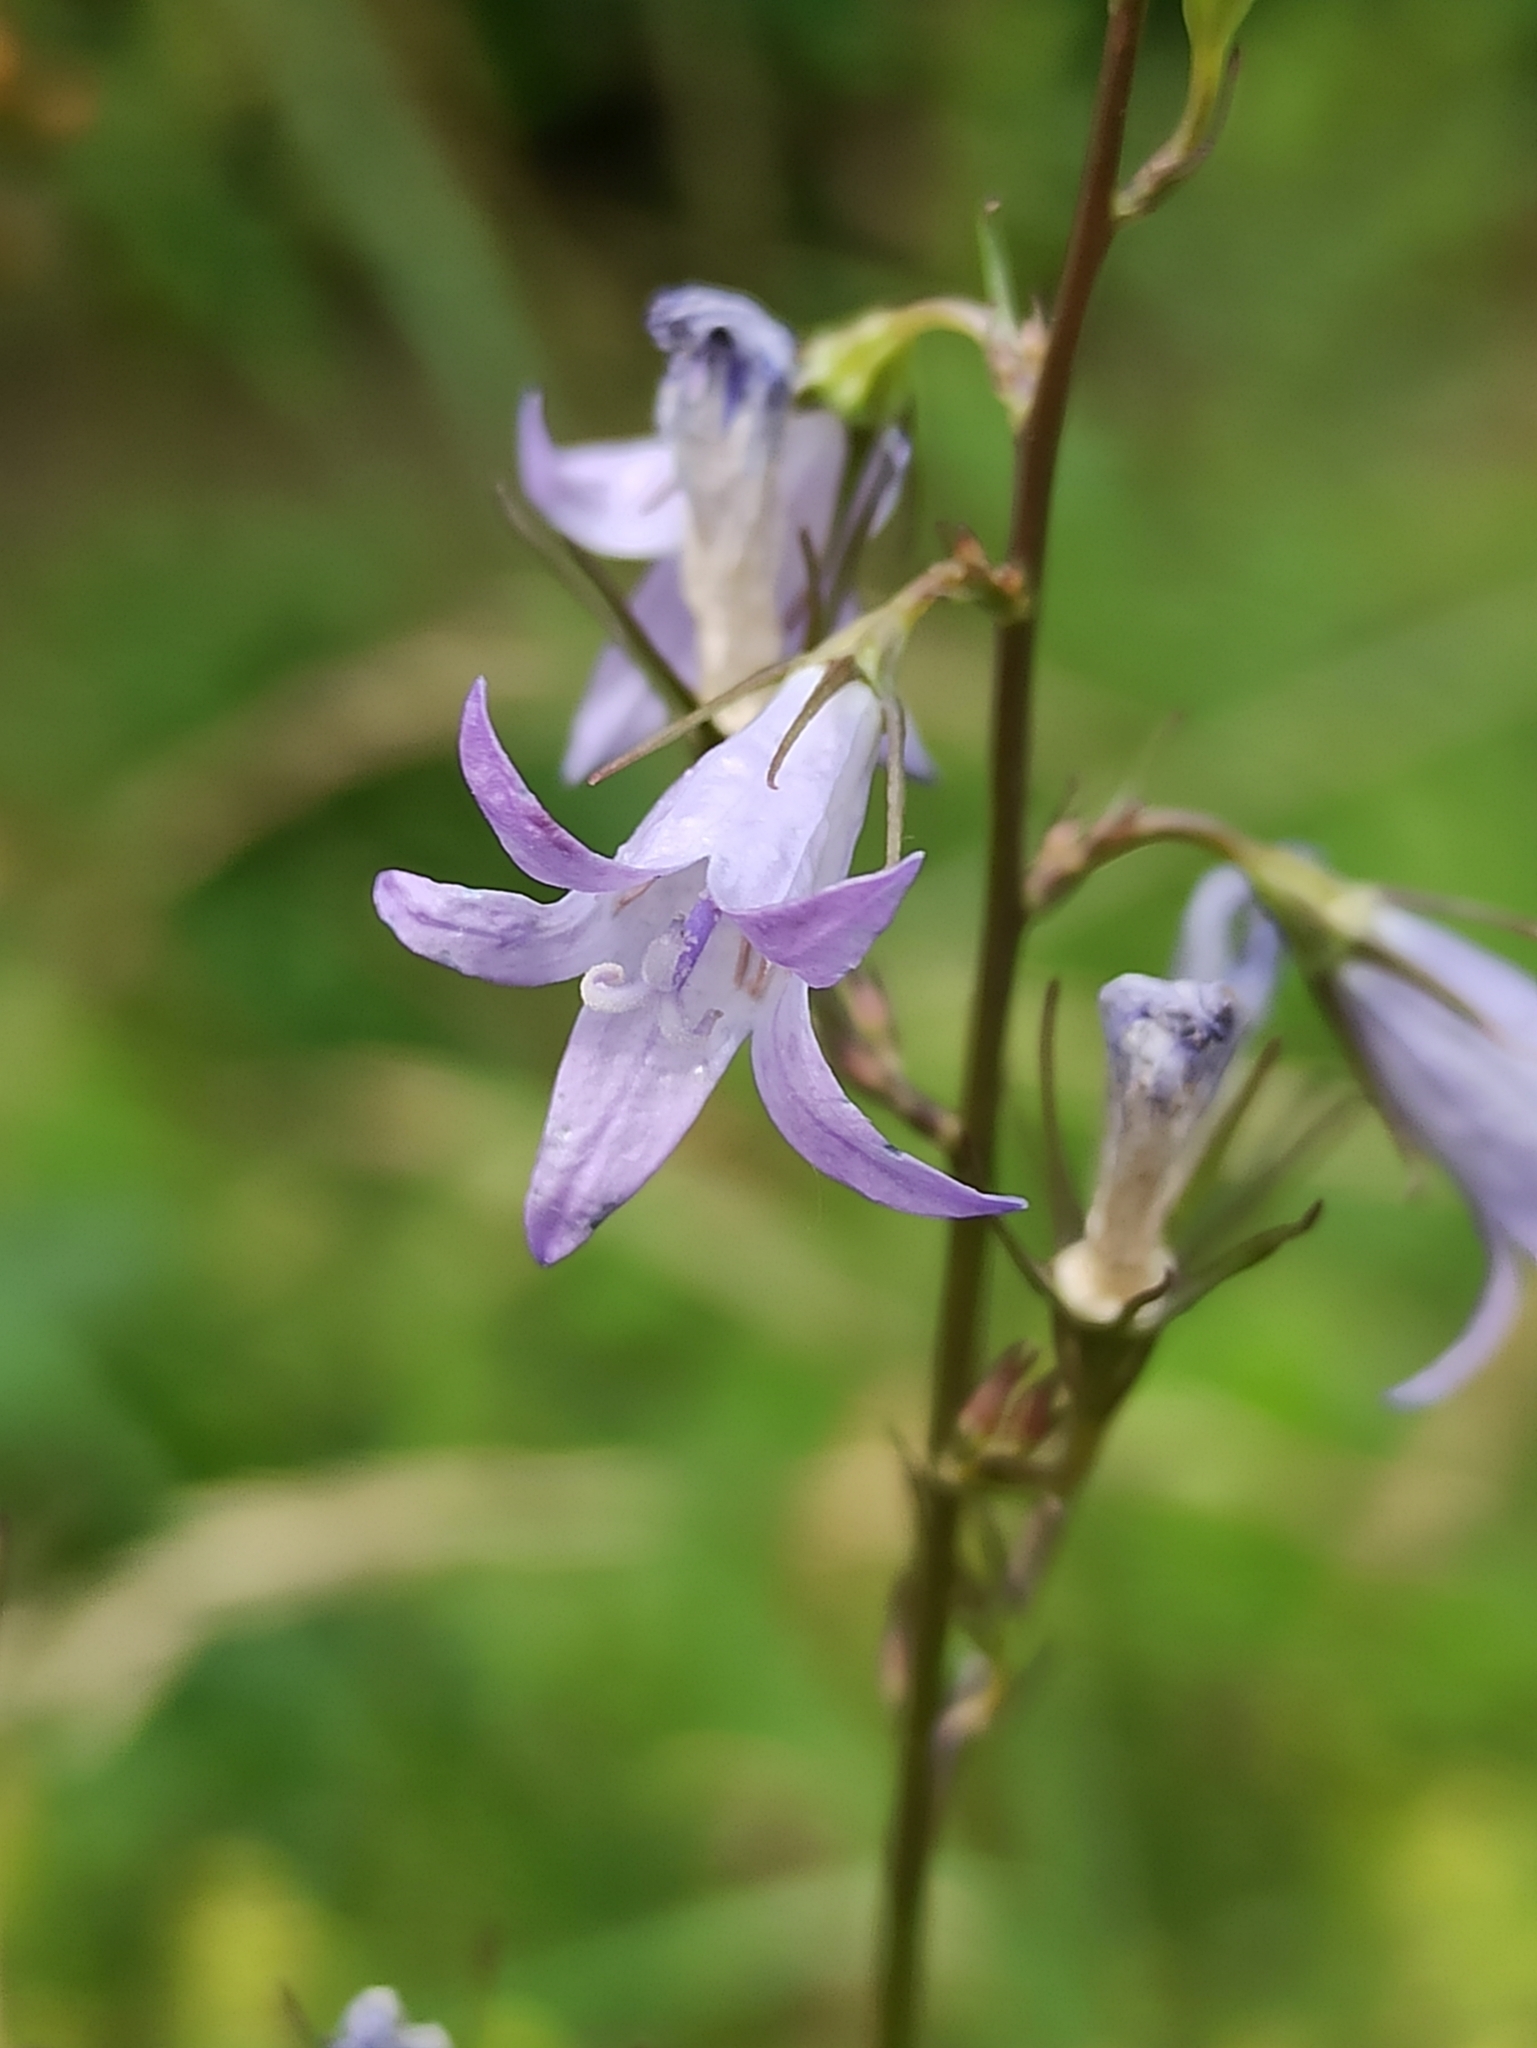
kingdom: Plantae
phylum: Tracheophyta
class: Magnoliopsida
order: Asterales
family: Campanulaceae
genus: Campanula
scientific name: Campanula rapunculus
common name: Rampion bellflower
